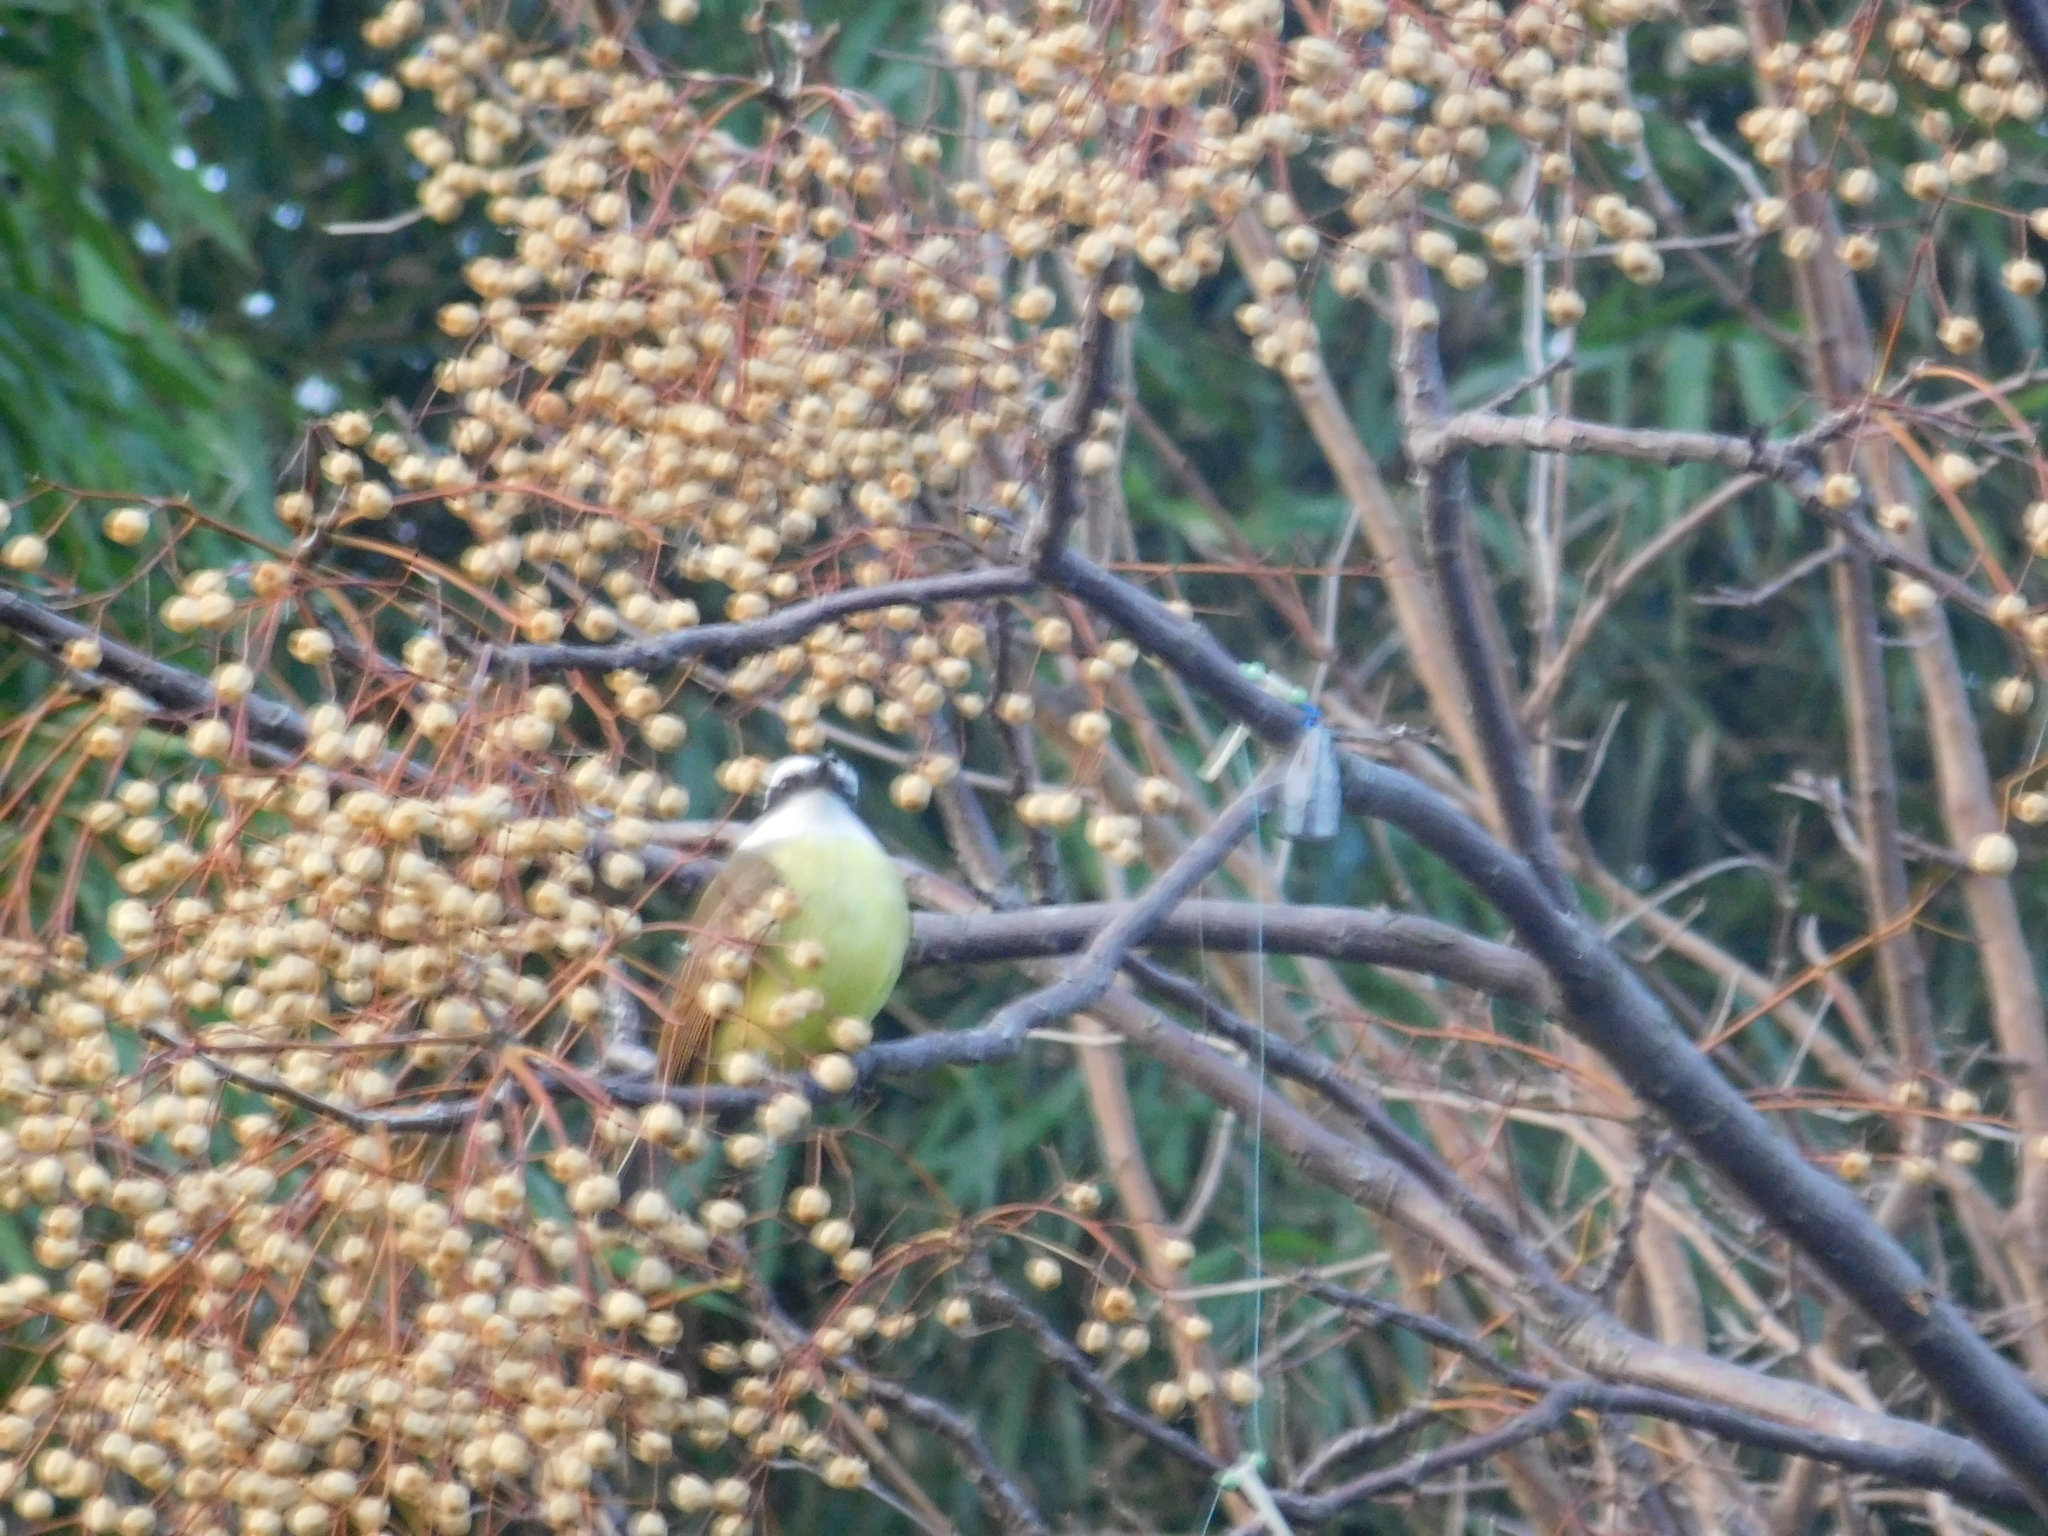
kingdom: Animalia
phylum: Chordata
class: Aves
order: Passeriformes
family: Tyrannidae
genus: Pitangus
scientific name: Pitangus sulphuratus
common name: Great kiskadee
